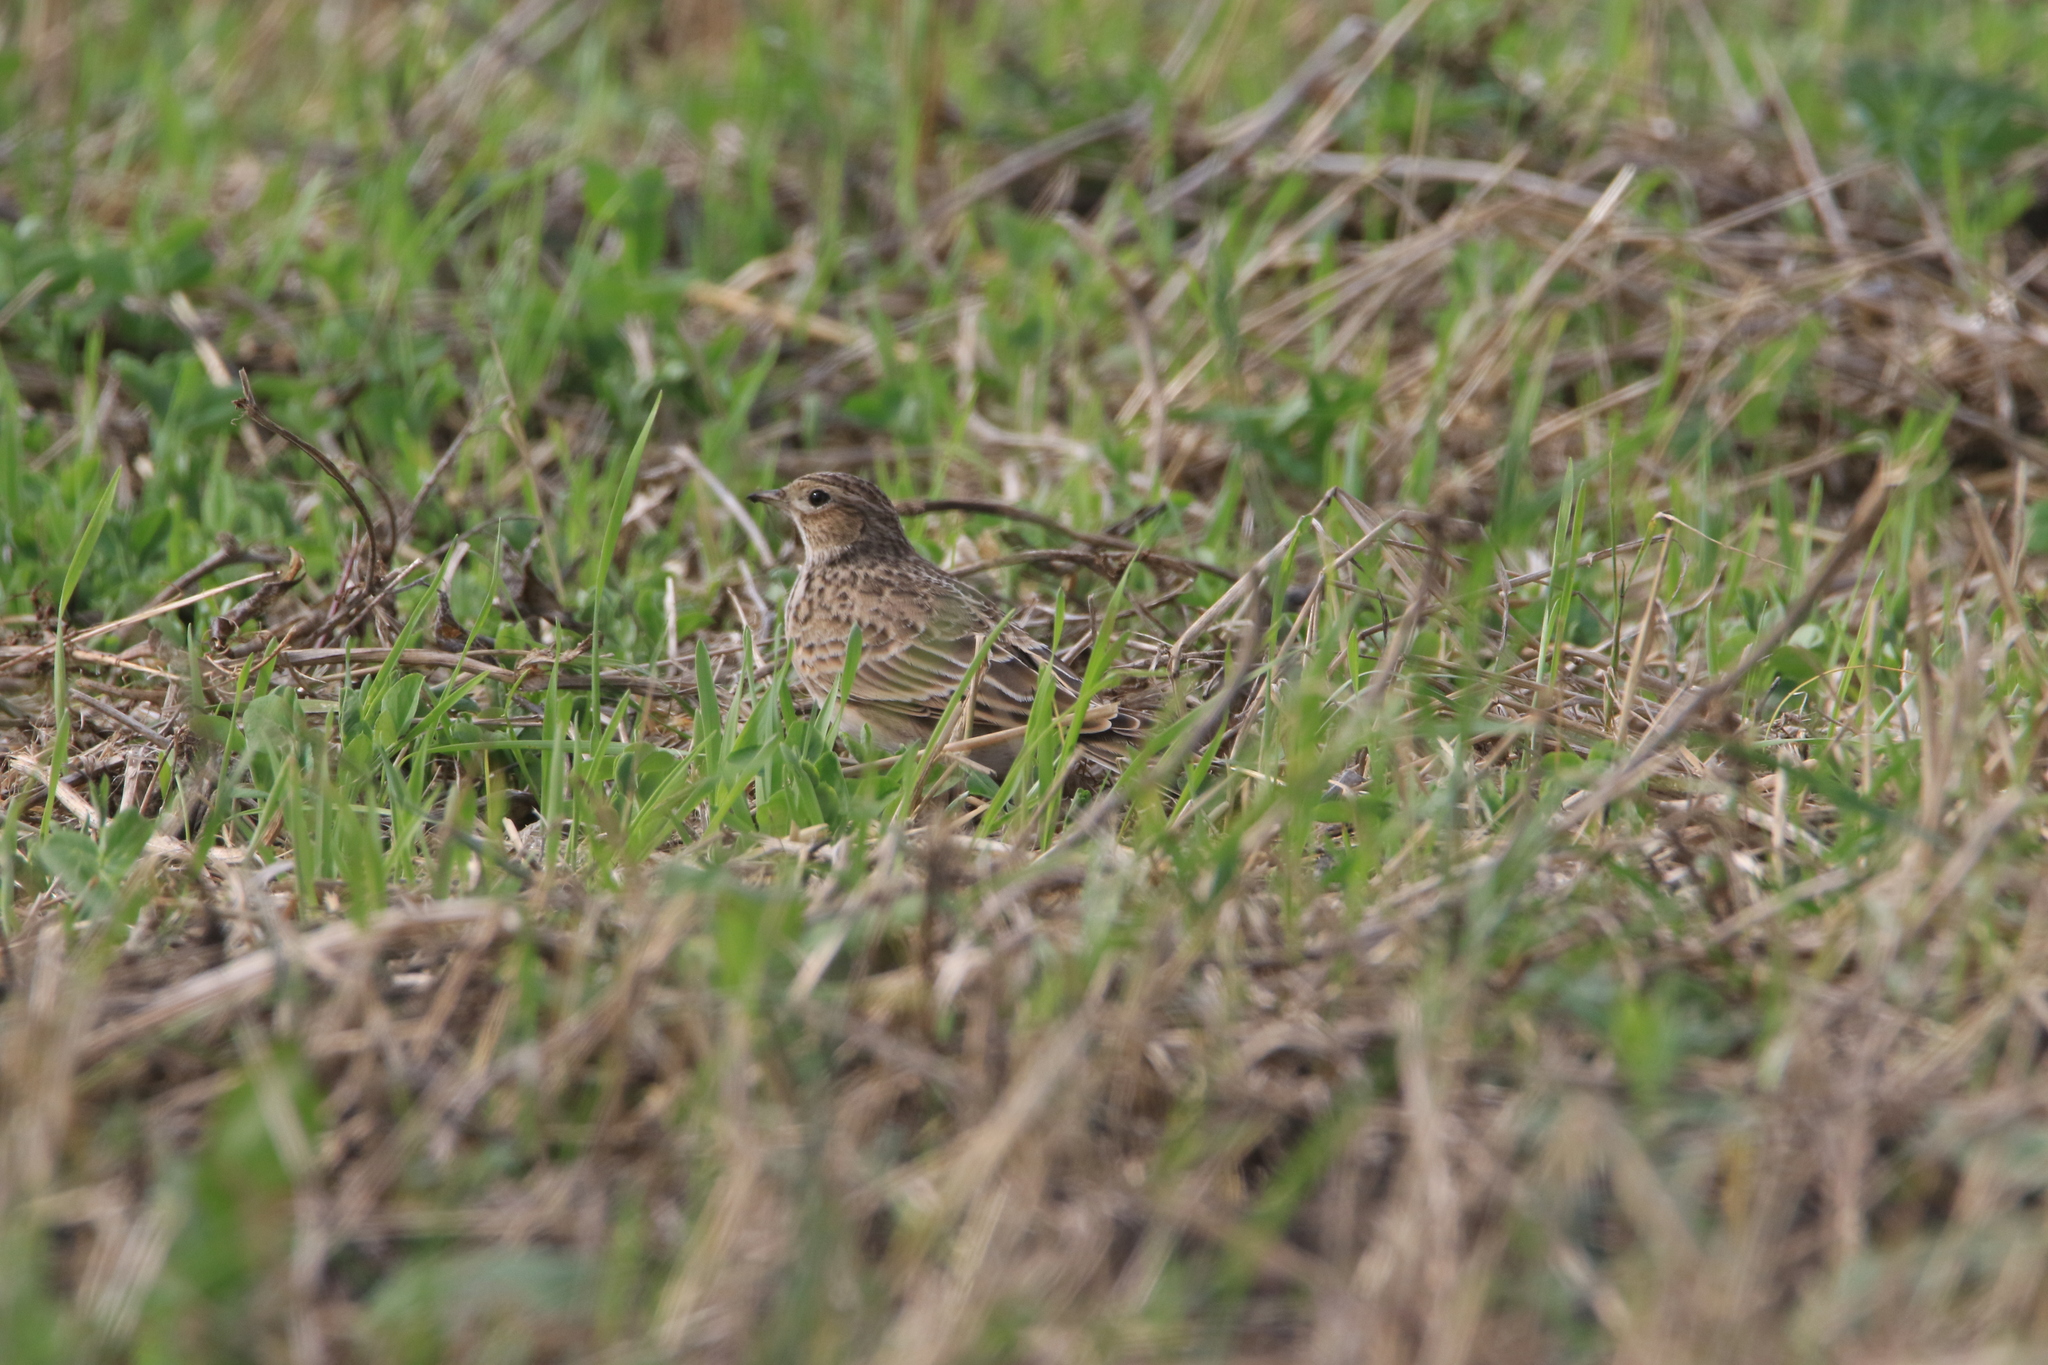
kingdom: Animalia
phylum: Chordata
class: Aves
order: Passeriformes
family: Alaudidae
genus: Alauda
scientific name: Alauda arvensis
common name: Eurasian skylark
